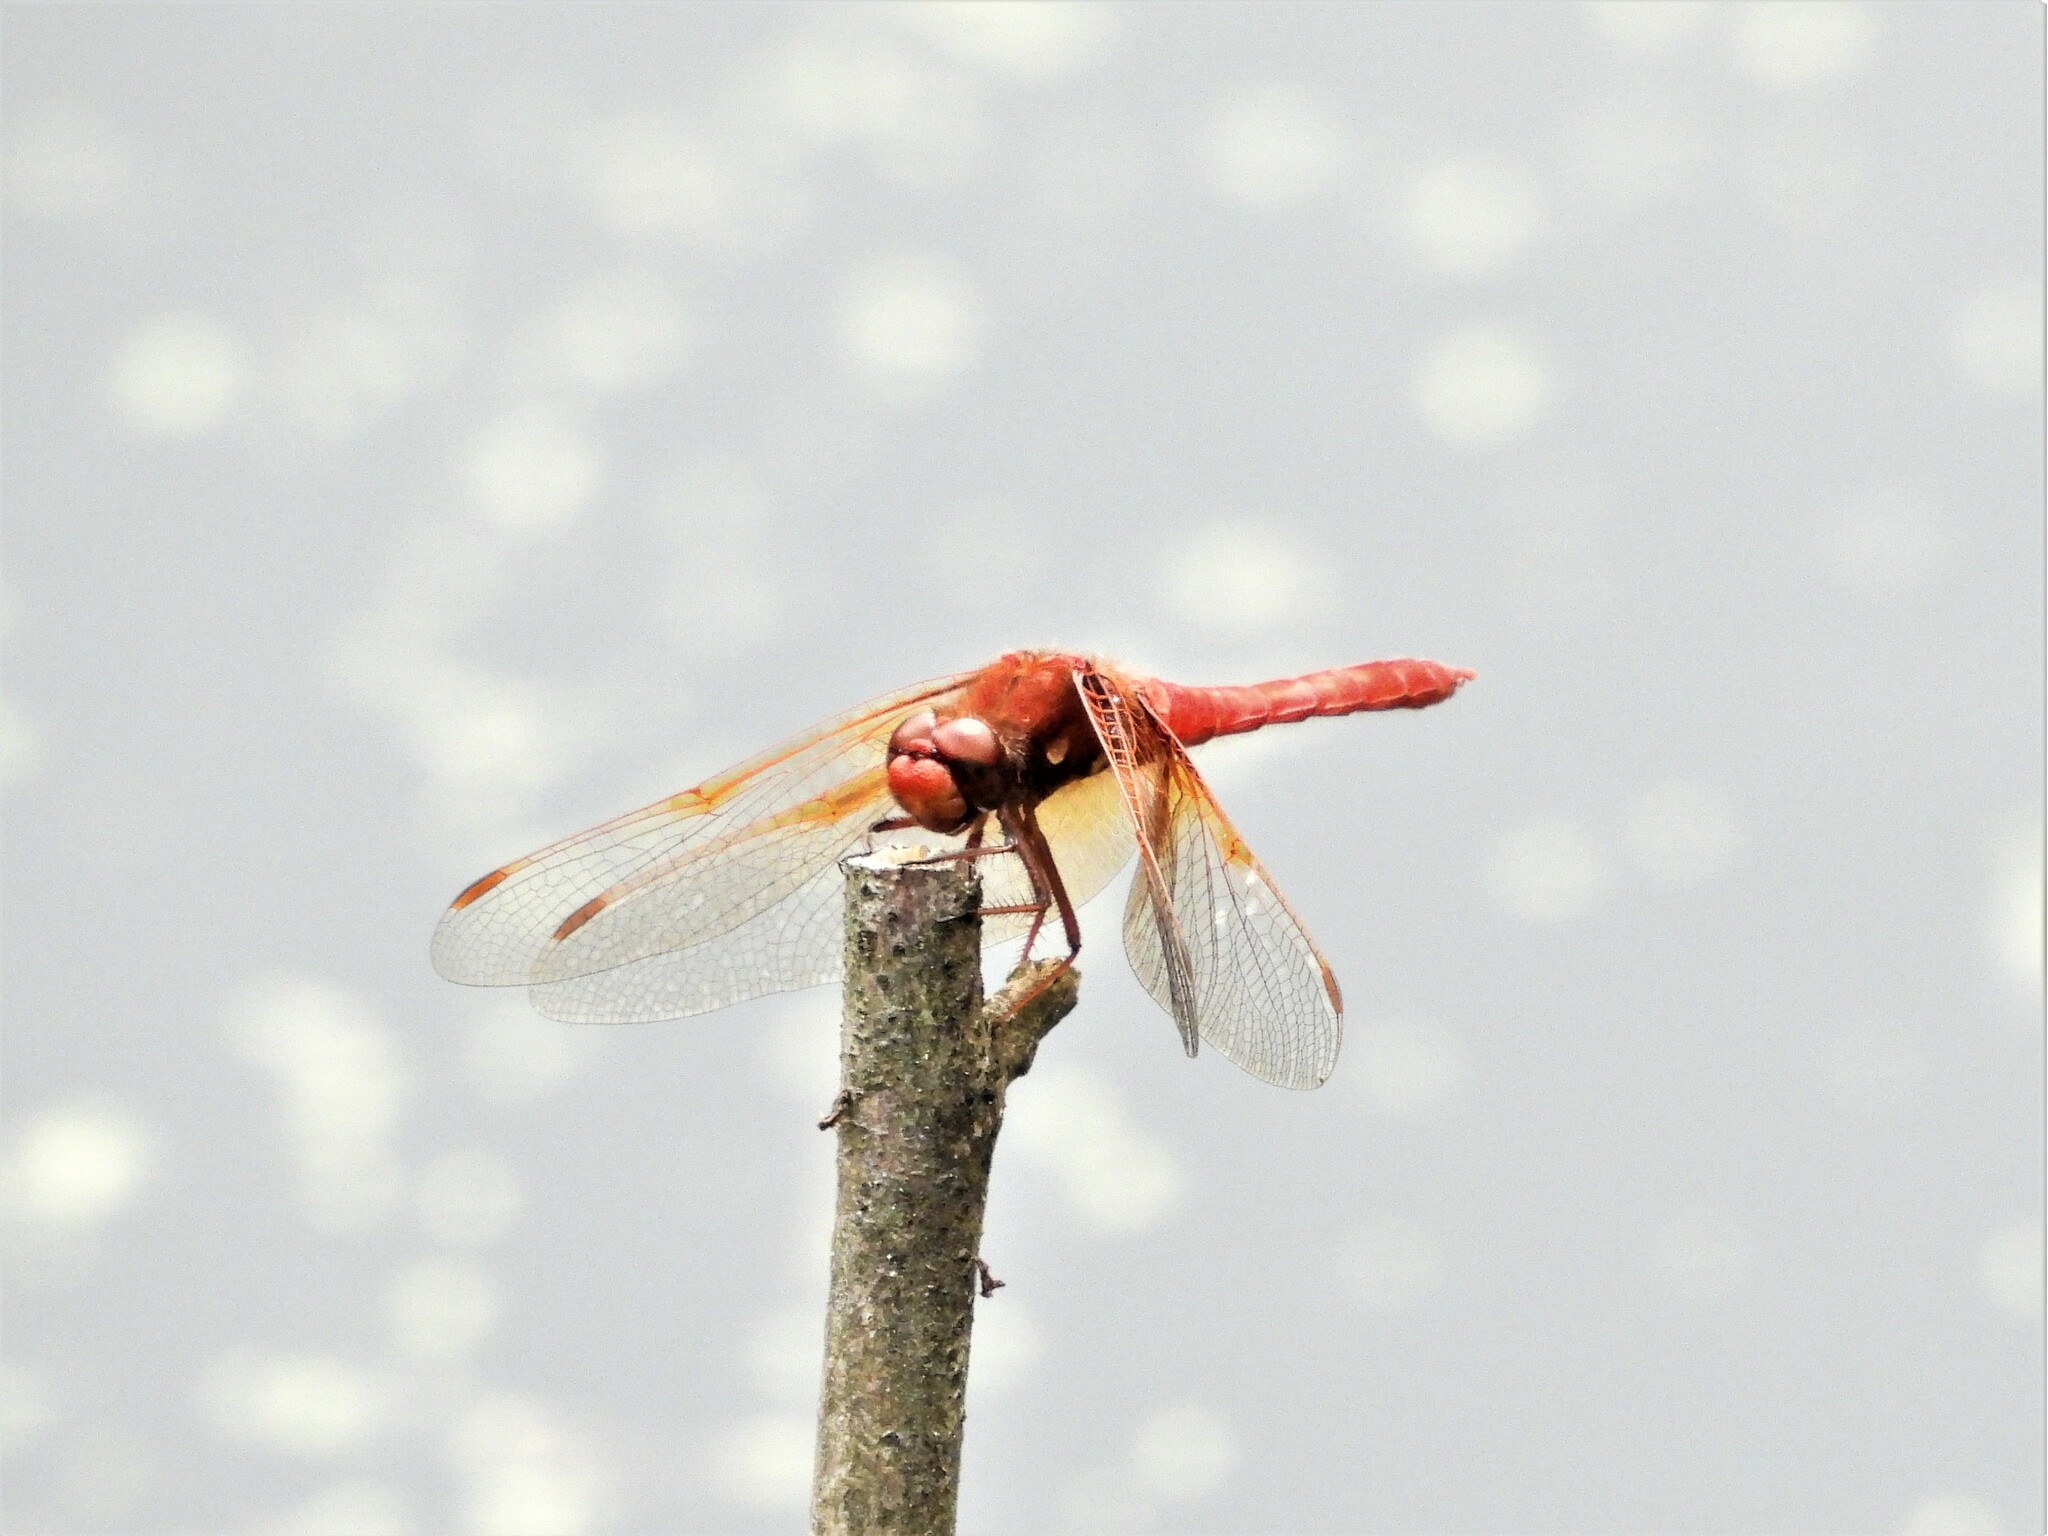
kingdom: Animalia
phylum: Arthropoda
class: Insecta
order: Odonata
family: Libellulidae
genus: Sympetrum
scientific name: Sympetrum illotum
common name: Cardinal meadowhawk
